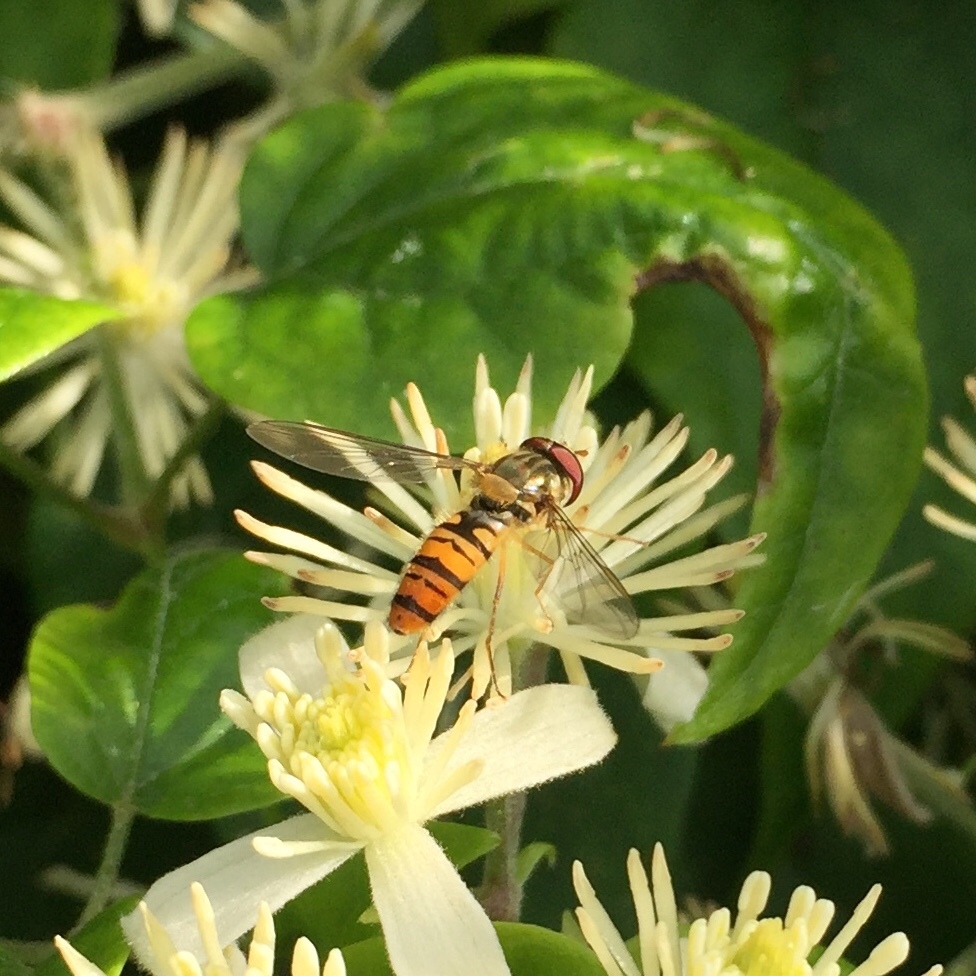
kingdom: Animalia
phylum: Arthropoda
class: Insecta
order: Diptera
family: Syrphidae
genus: Episyrphus
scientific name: Episyrphus balteatus
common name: Marmalade hoverfly
